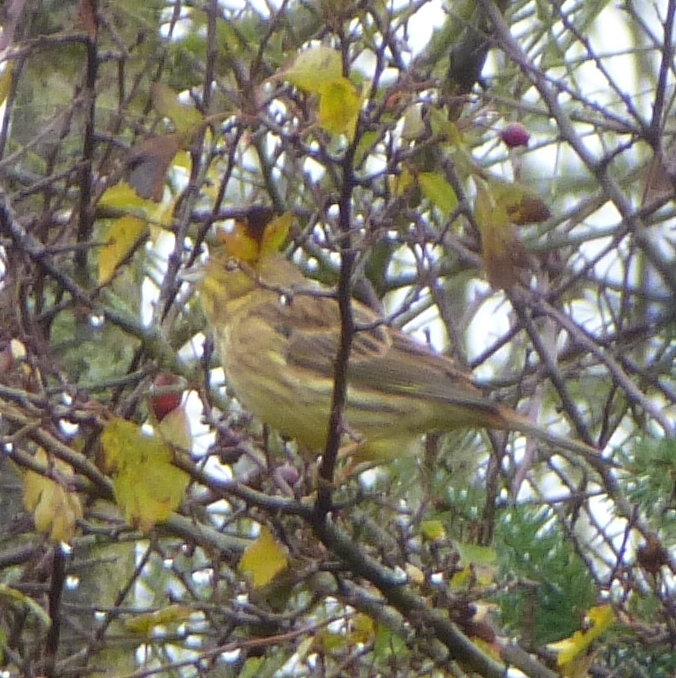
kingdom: Animalia
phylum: Chordata
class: Aves
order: Passeriformes
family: Emberizidae
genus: Emberiza
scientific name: Emberiza citrinella
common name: Yellowhammer
